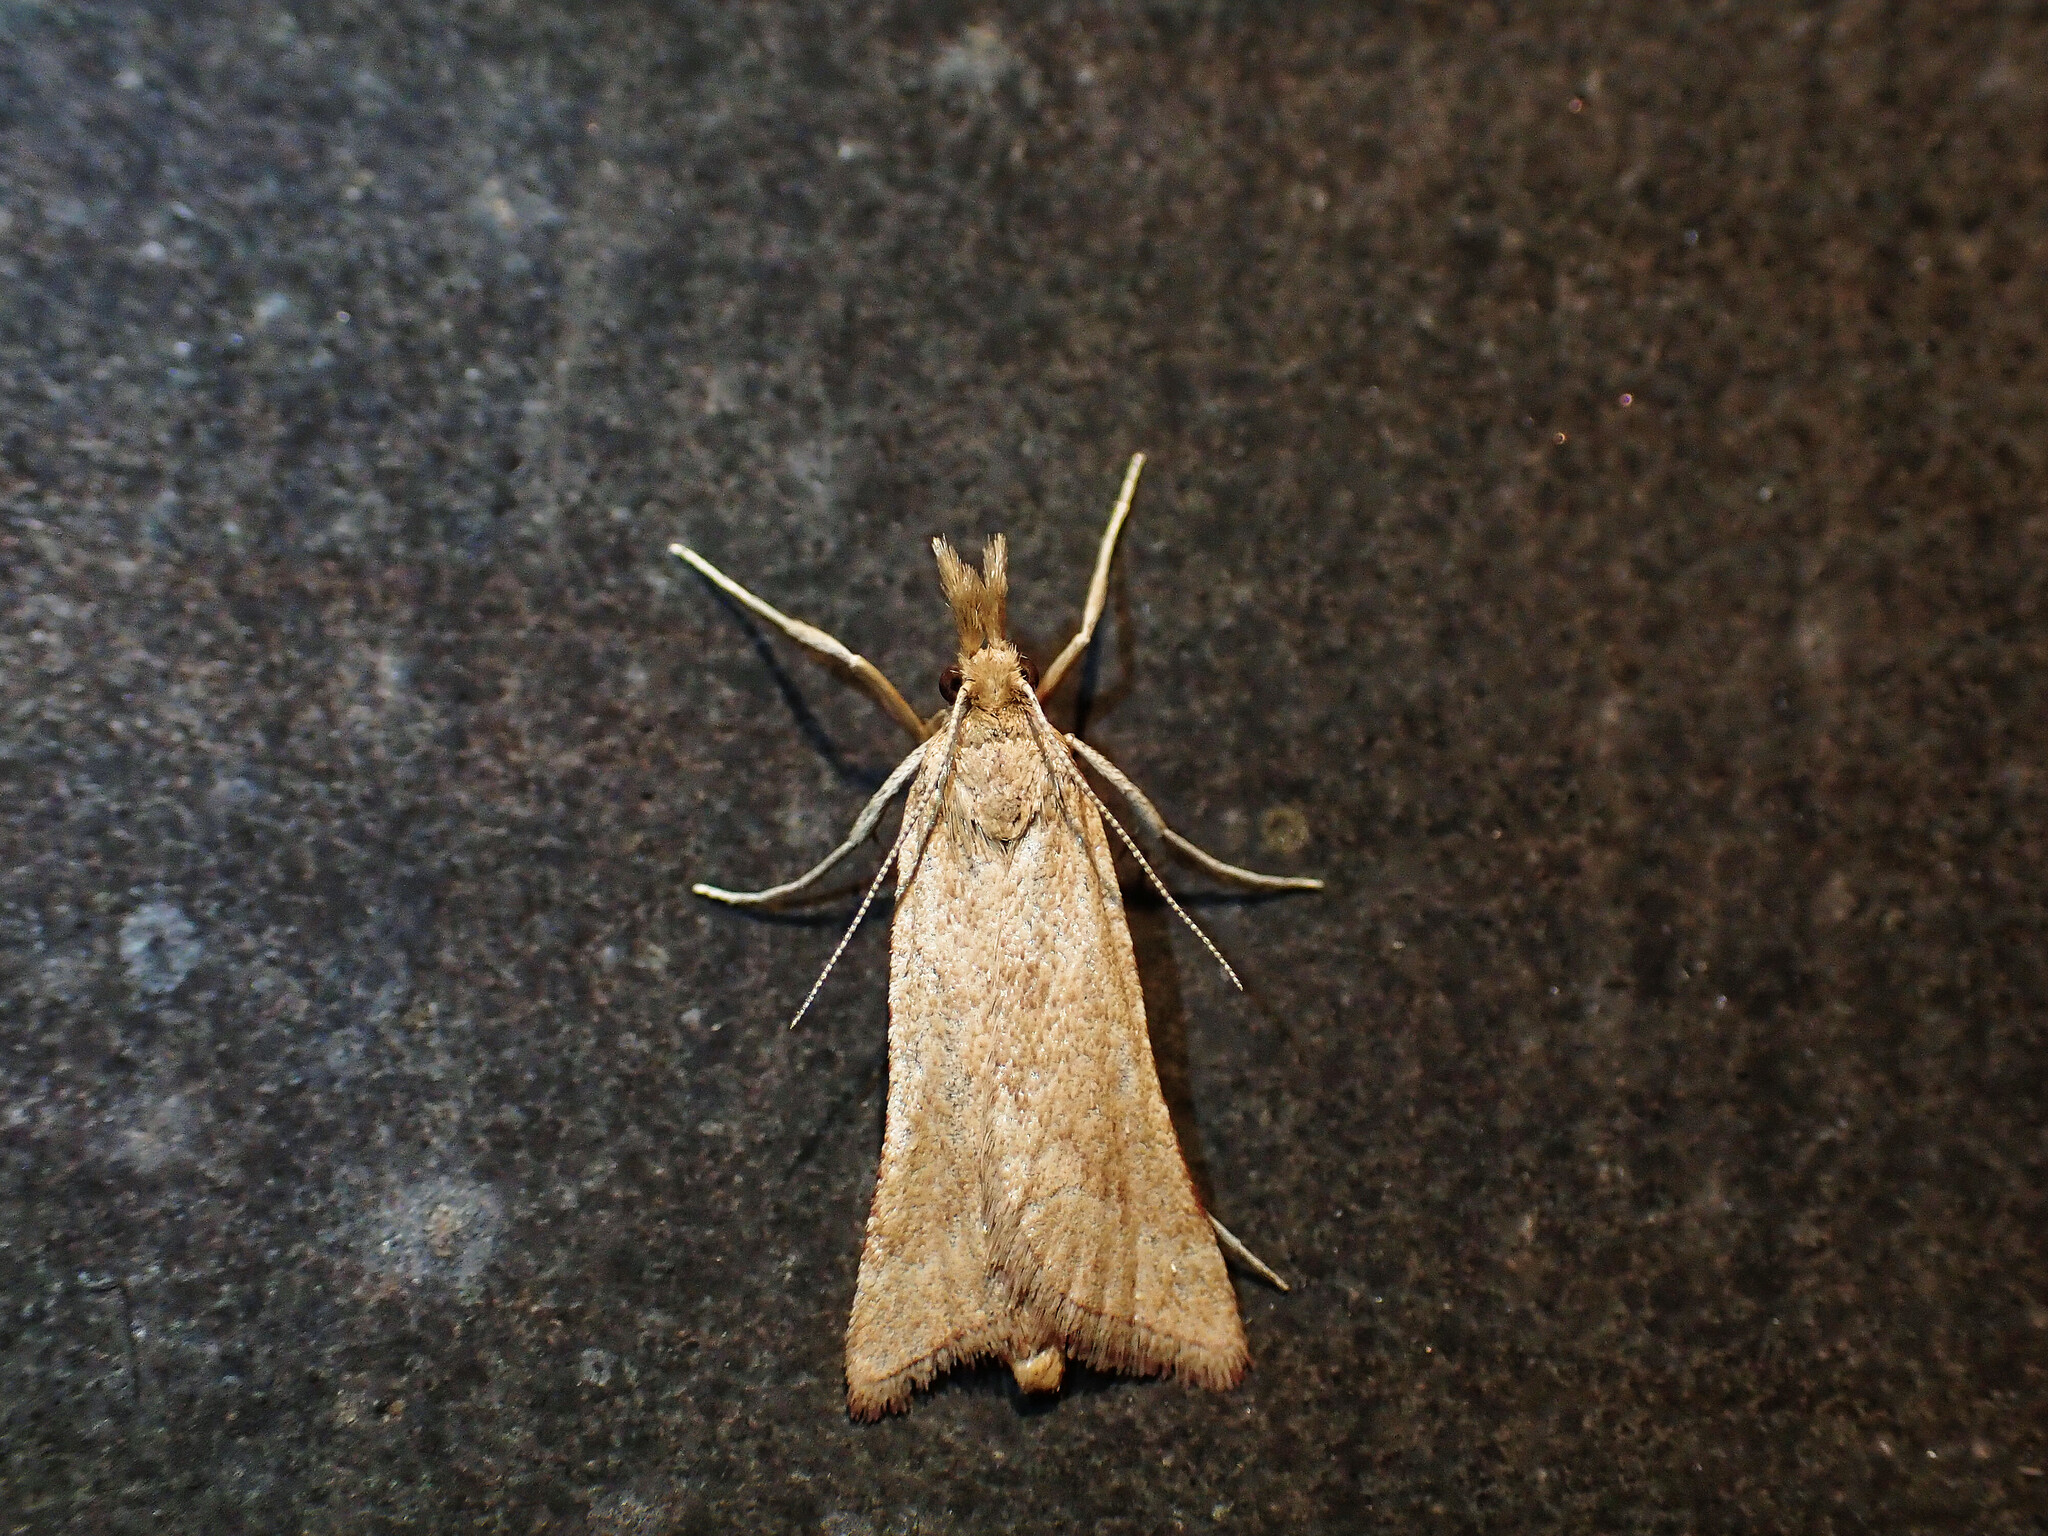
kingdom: Animalia
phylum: Arthropoda
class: Insecta
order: Lepidoptera
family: Pyralidae
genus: Synaphe
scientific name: Synaphe punctalis
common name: Long-legged tabby
